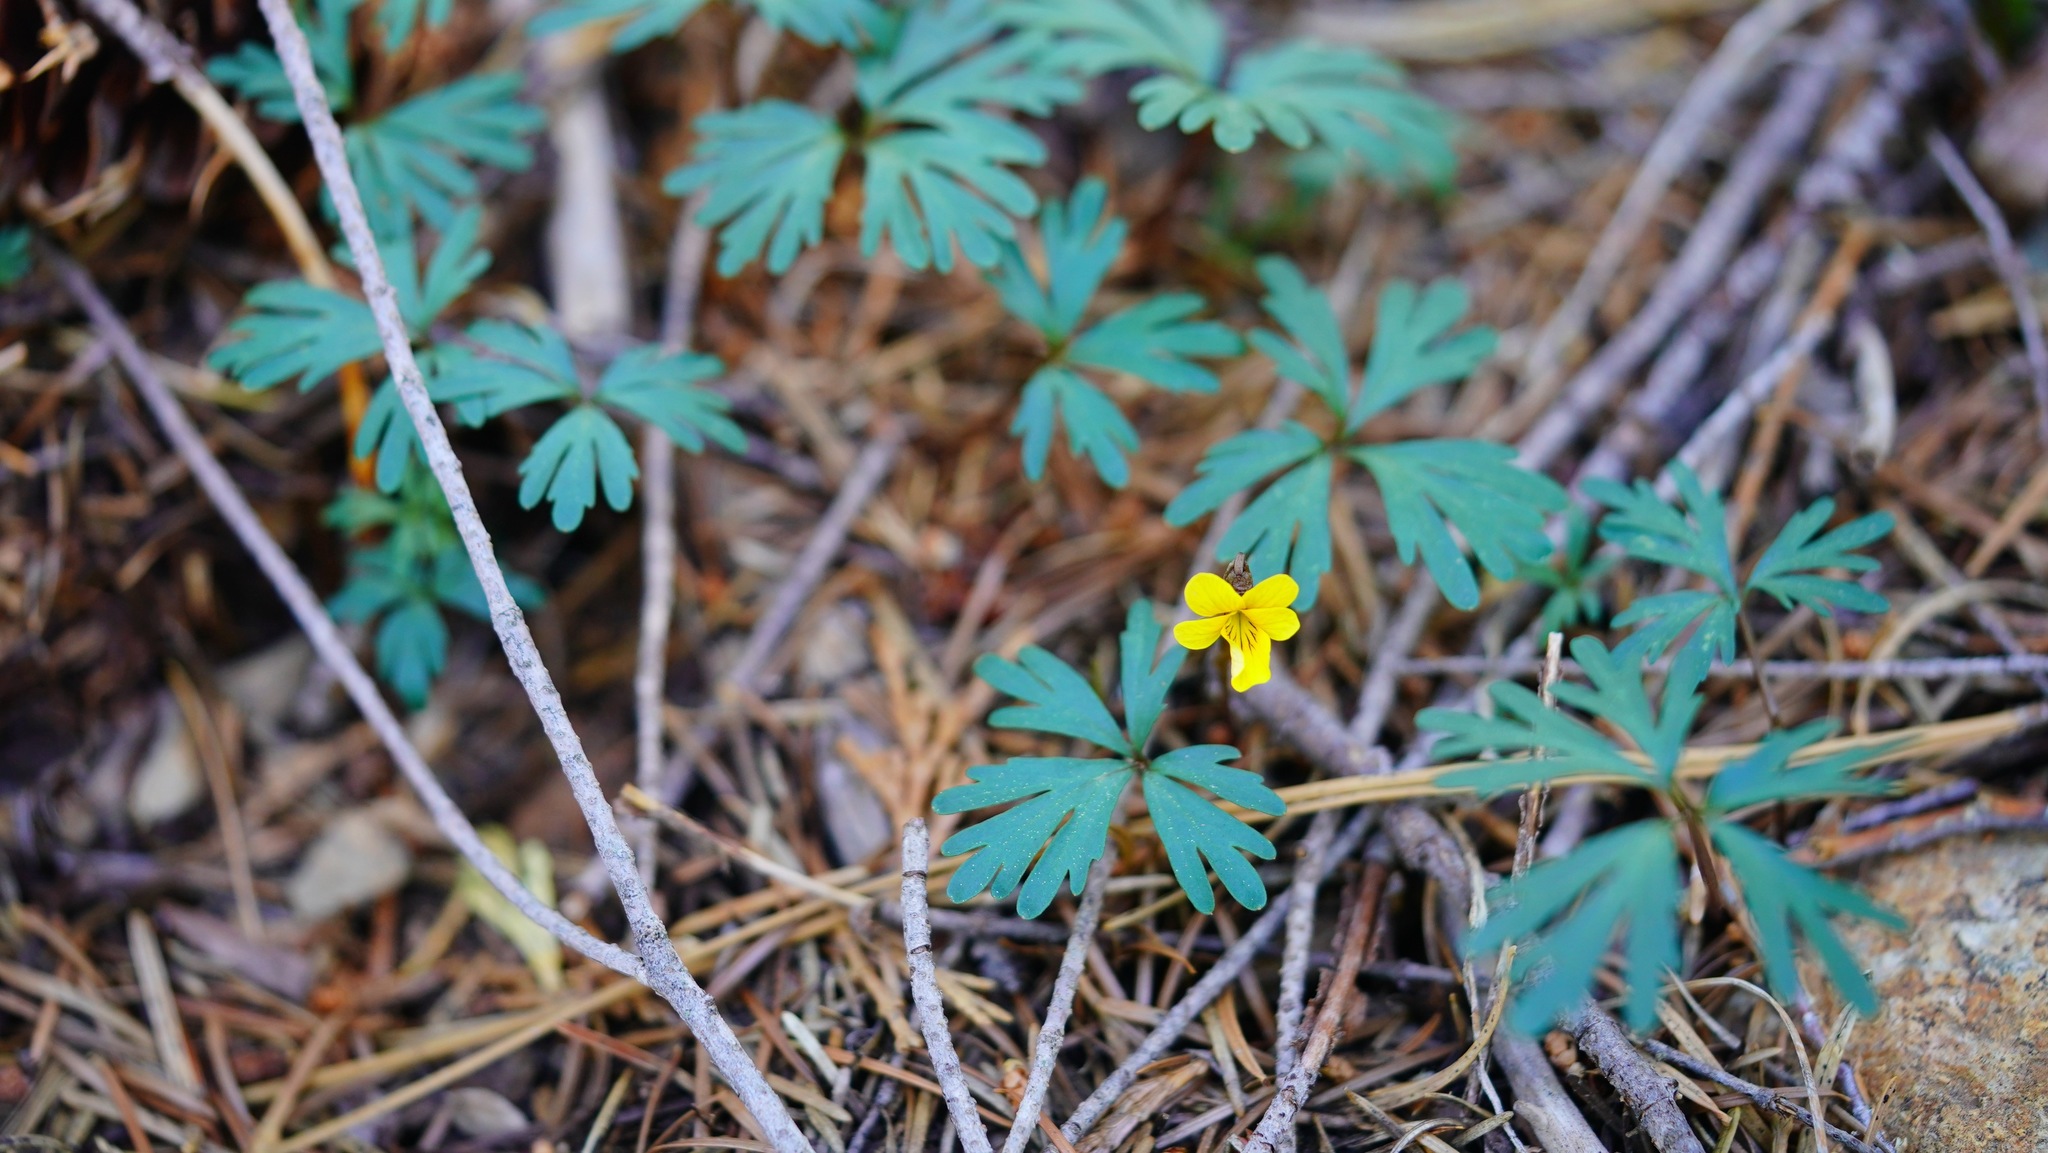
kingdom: Plantae
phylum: Tracheophyta
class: Magnoliopsida
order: Malpighiales
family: Violaceae
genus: Viola
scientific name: Viola sheltonii
